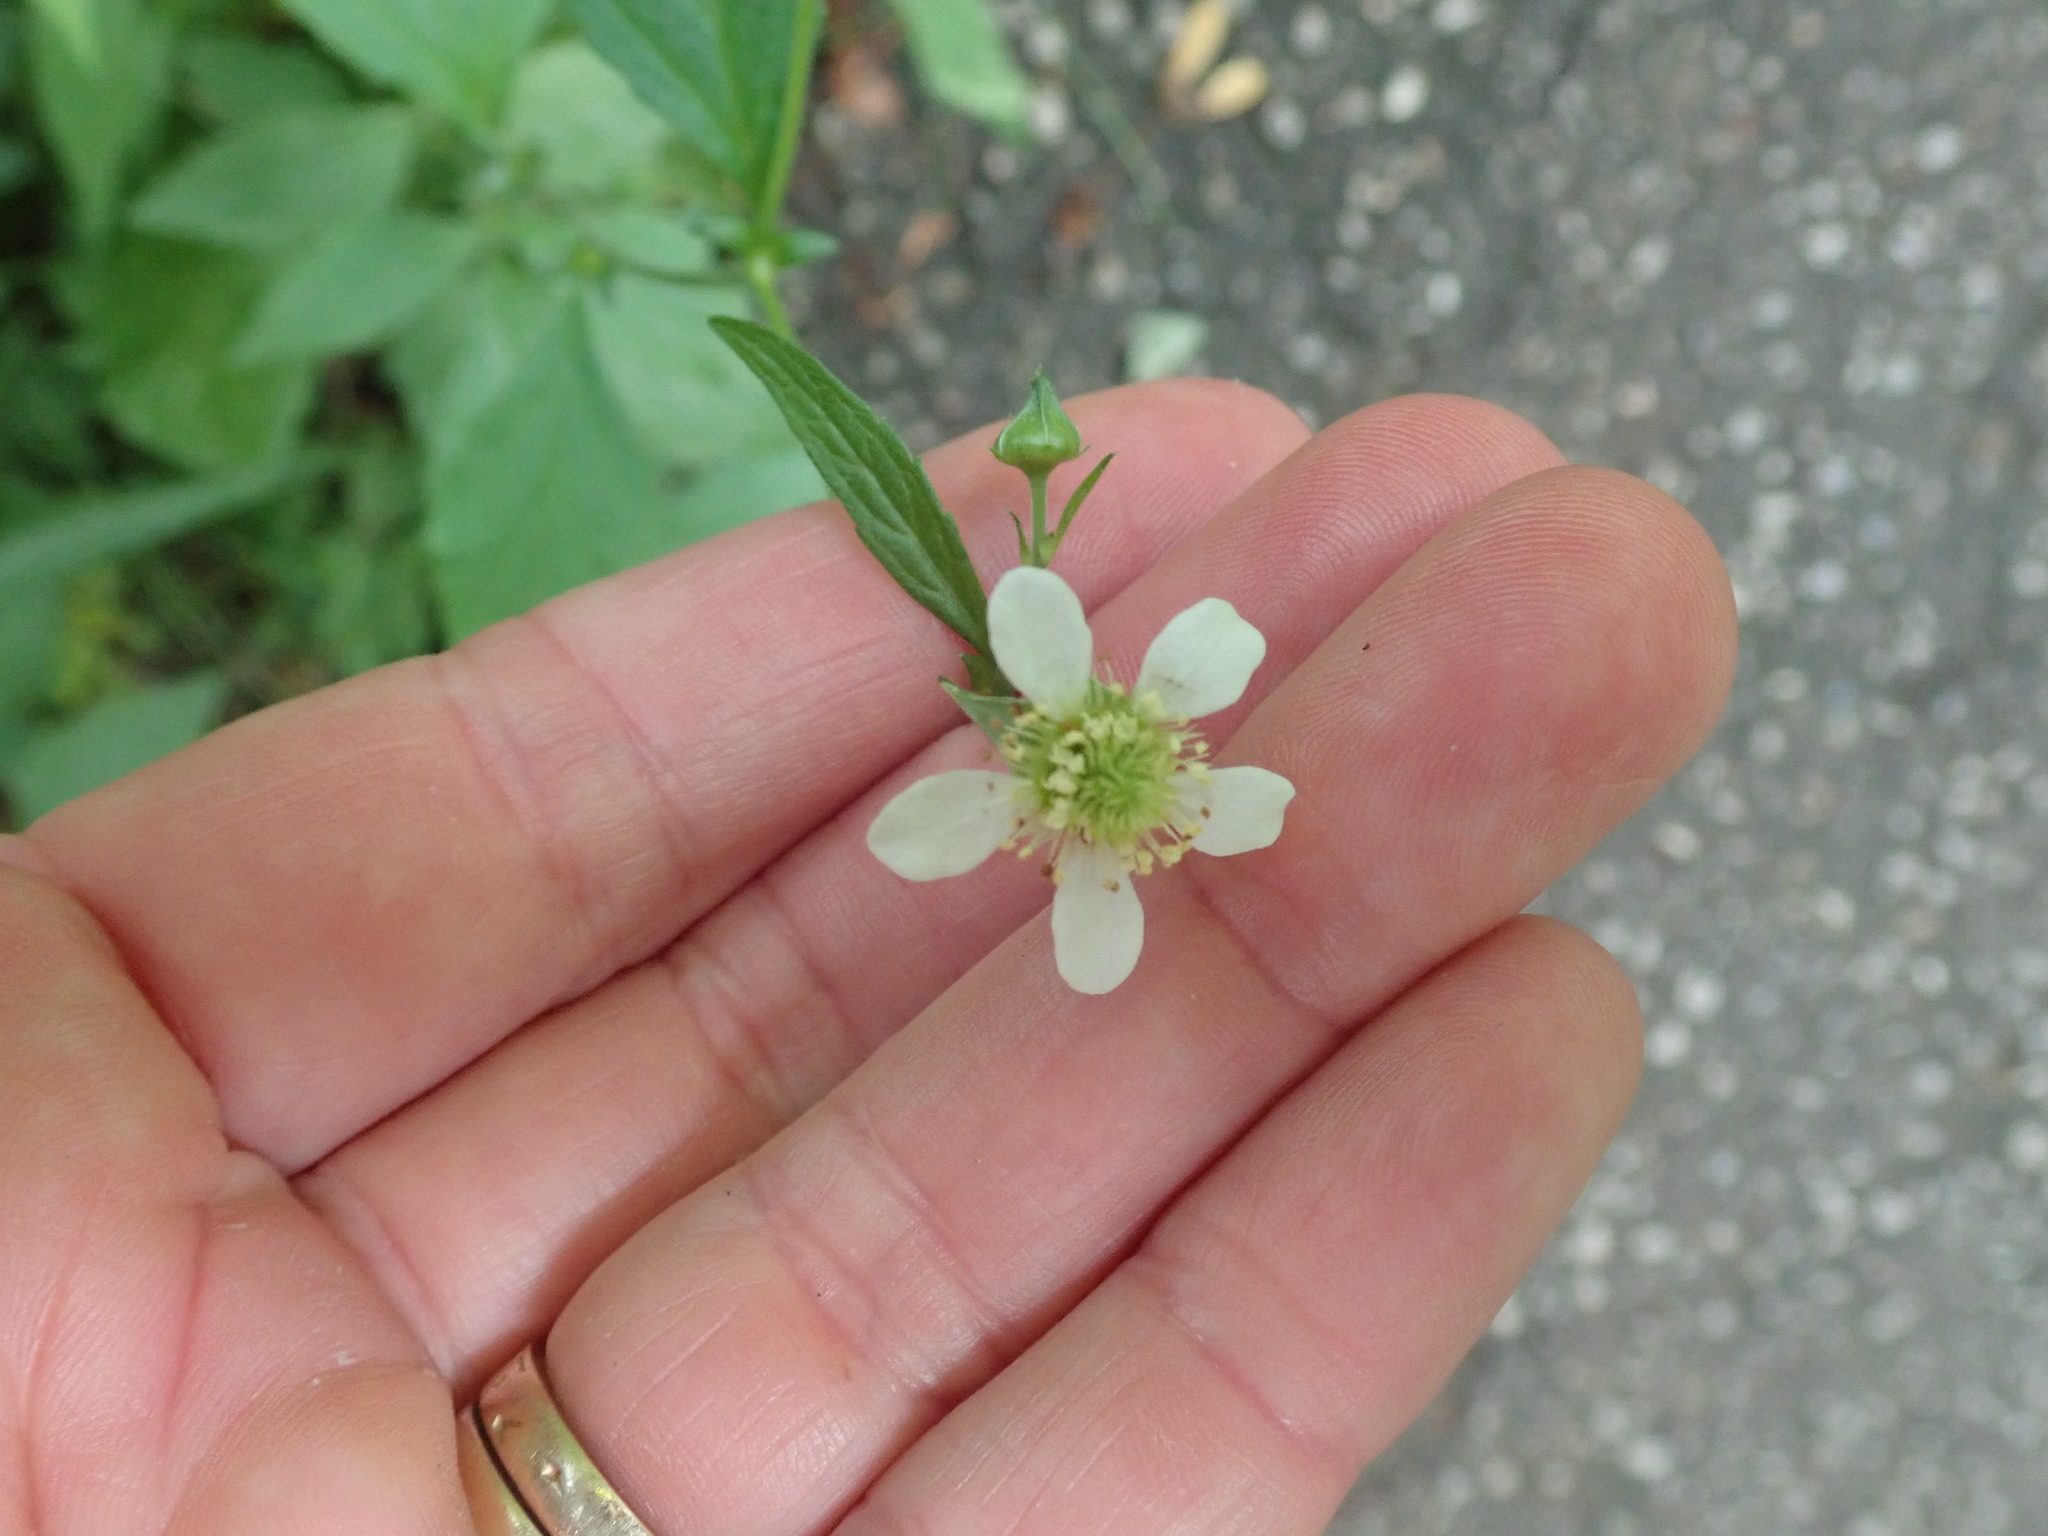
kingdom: Plantae
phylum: Tracheophyta
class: Magnoliopsida
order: Rosales
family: Rosaceae
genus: Geum
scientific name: Geum canadense
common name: White avens
